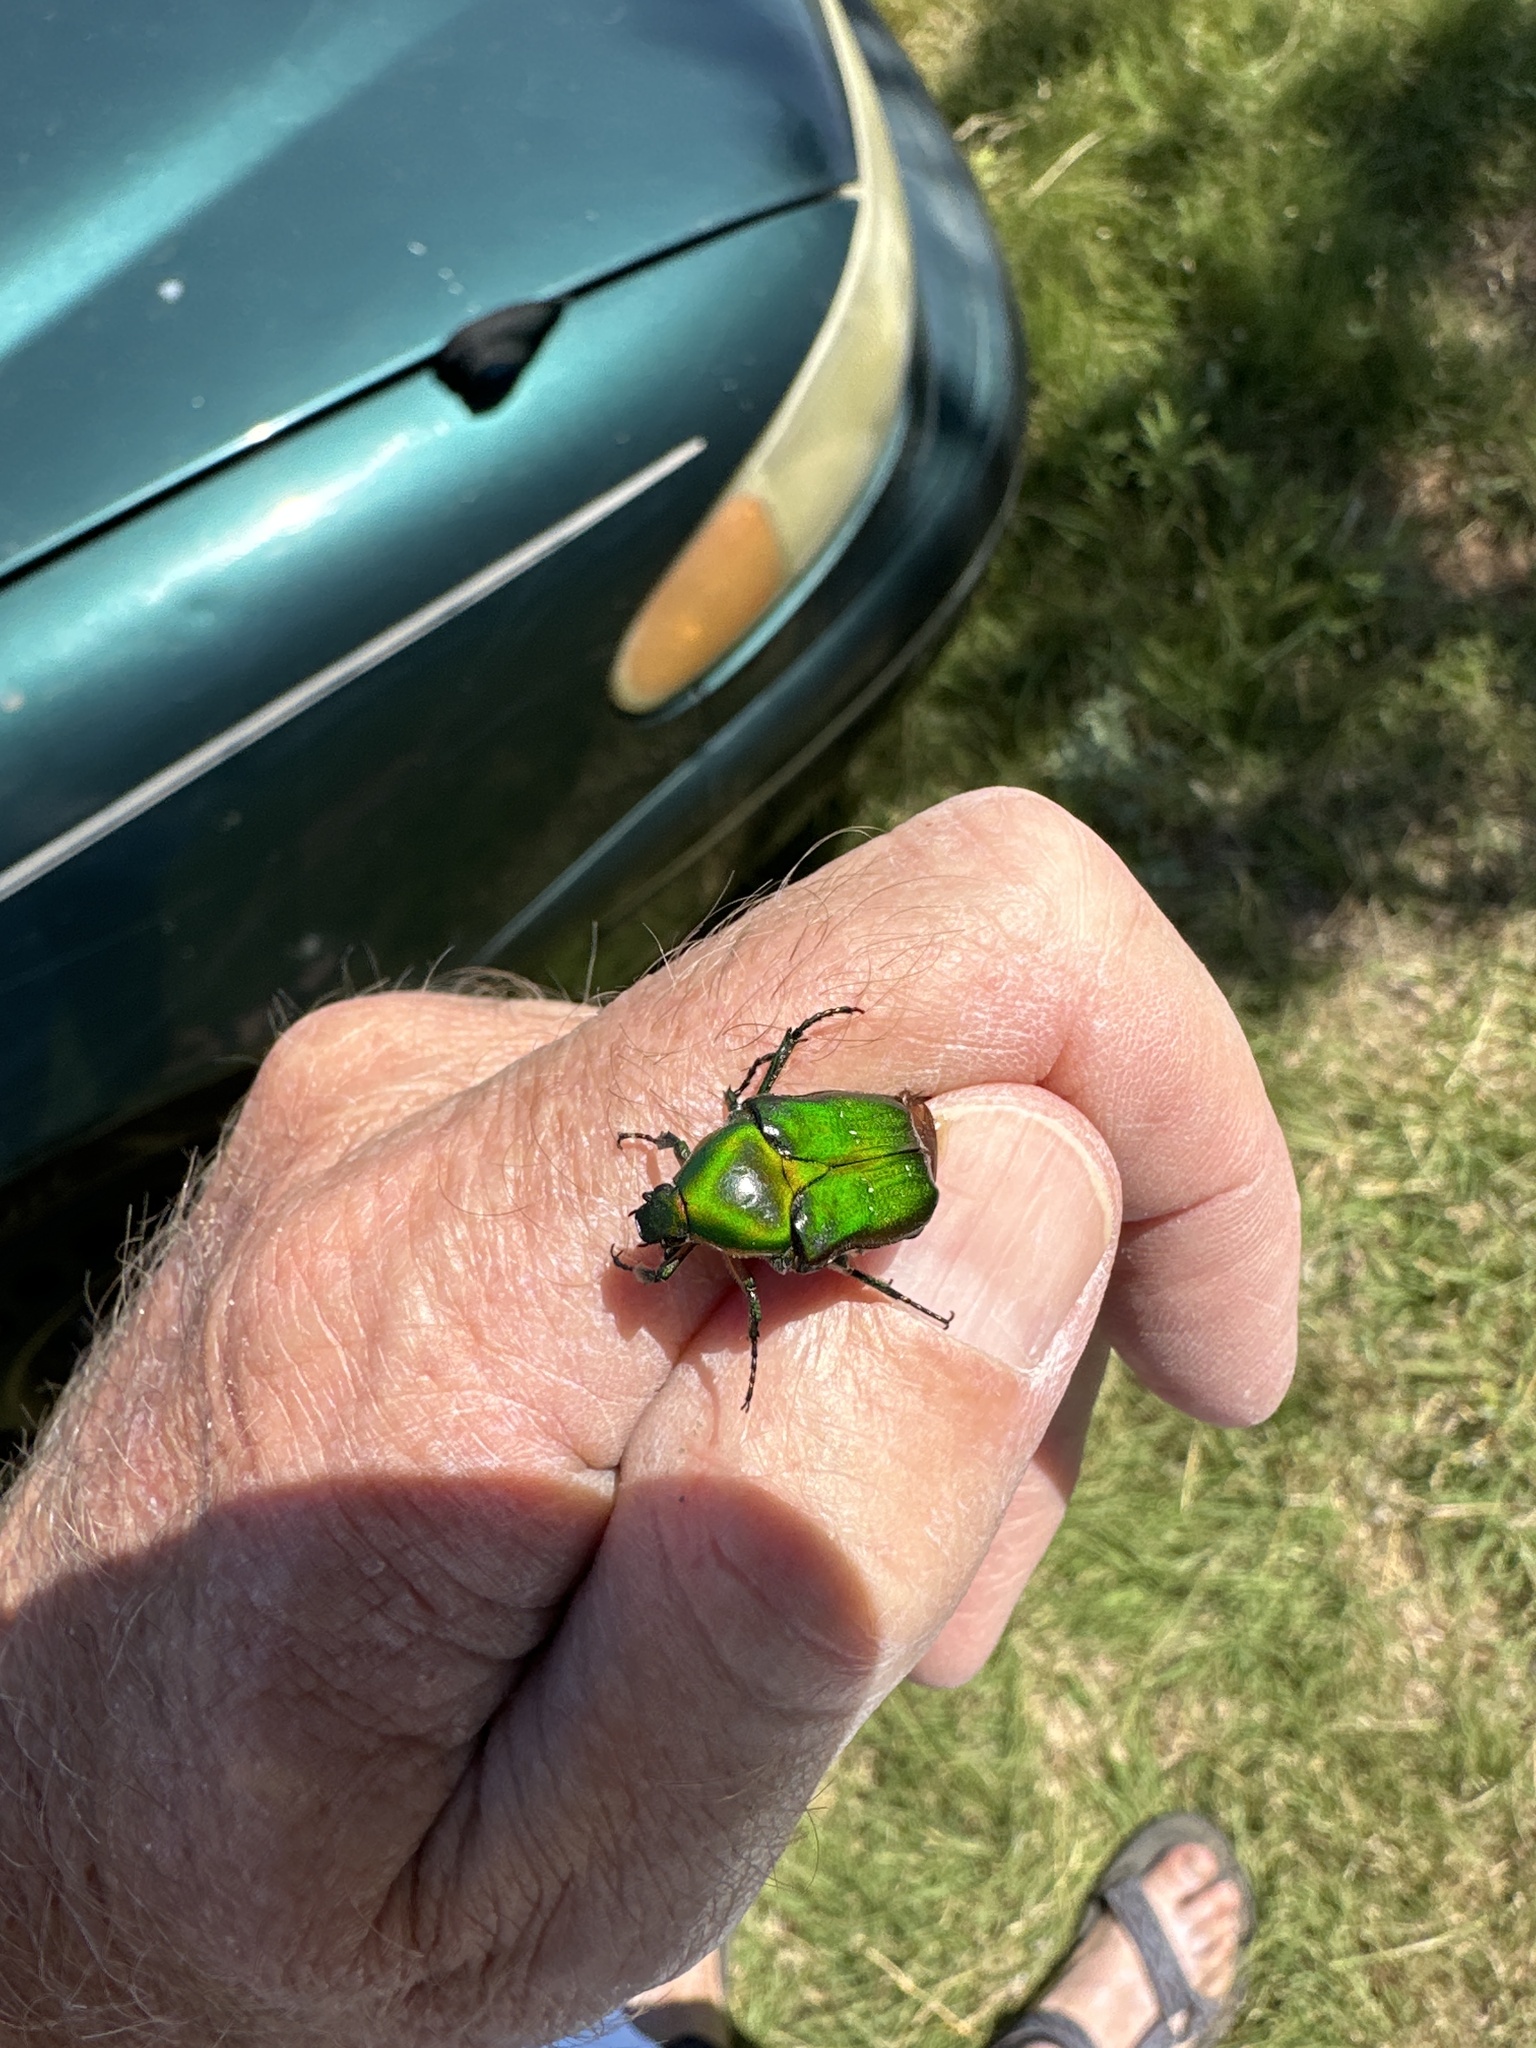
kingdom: Animalia
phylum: Arthropoda
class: Insecta
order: Coleoptera
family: Scarabaeidae
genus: Euphoria
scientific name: Euphoria fulgida
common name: Emerald euphoria
